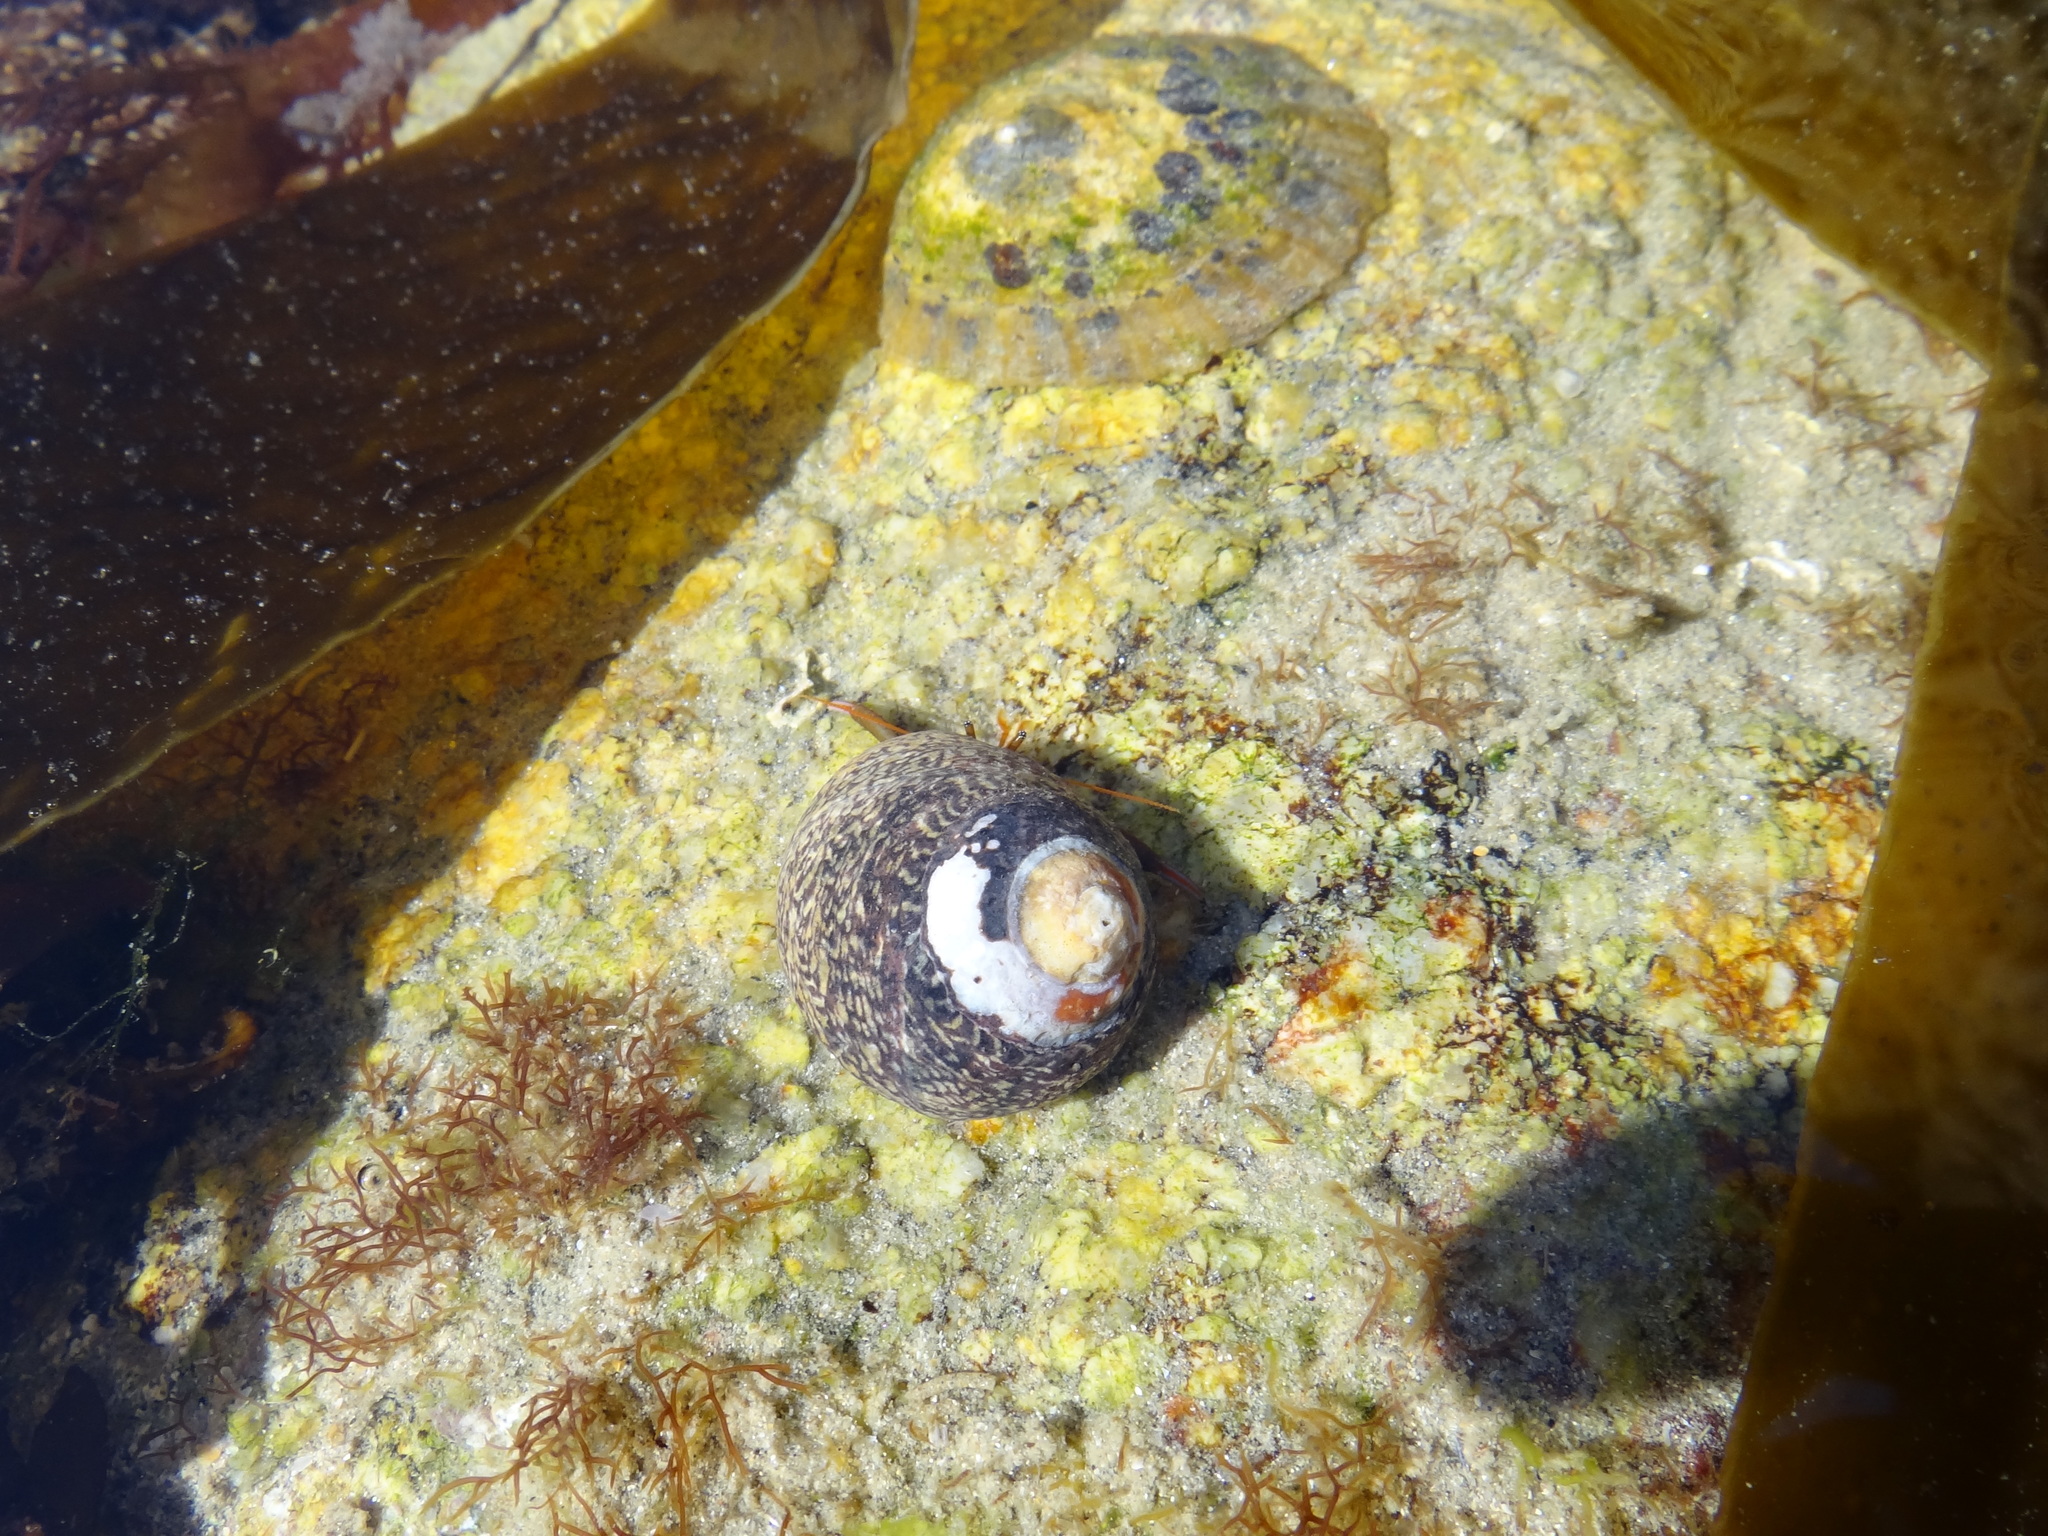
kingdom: Animalia
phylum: Mollusca
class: Gastropoda
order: Trochida
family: Trochidae
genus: Phorcus
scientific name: Phorcus lineatus
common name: Toothed top shell
